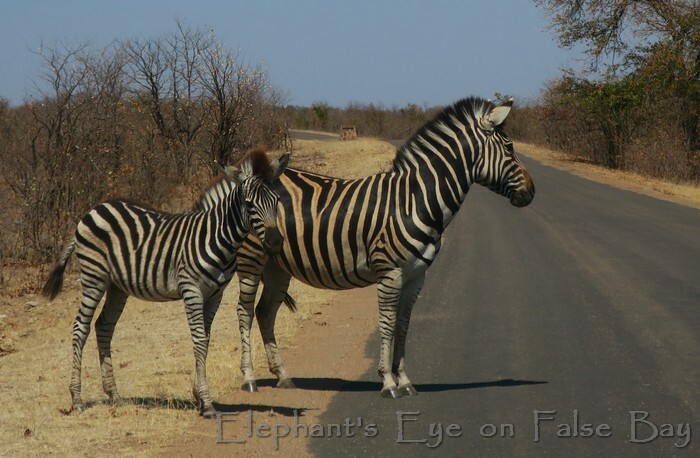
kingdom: Animalia
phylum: Chordata
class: Mammalia
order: Perissodactyla
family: Equidae
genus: Equus
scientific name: Equus quagga
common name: Plains zebra
